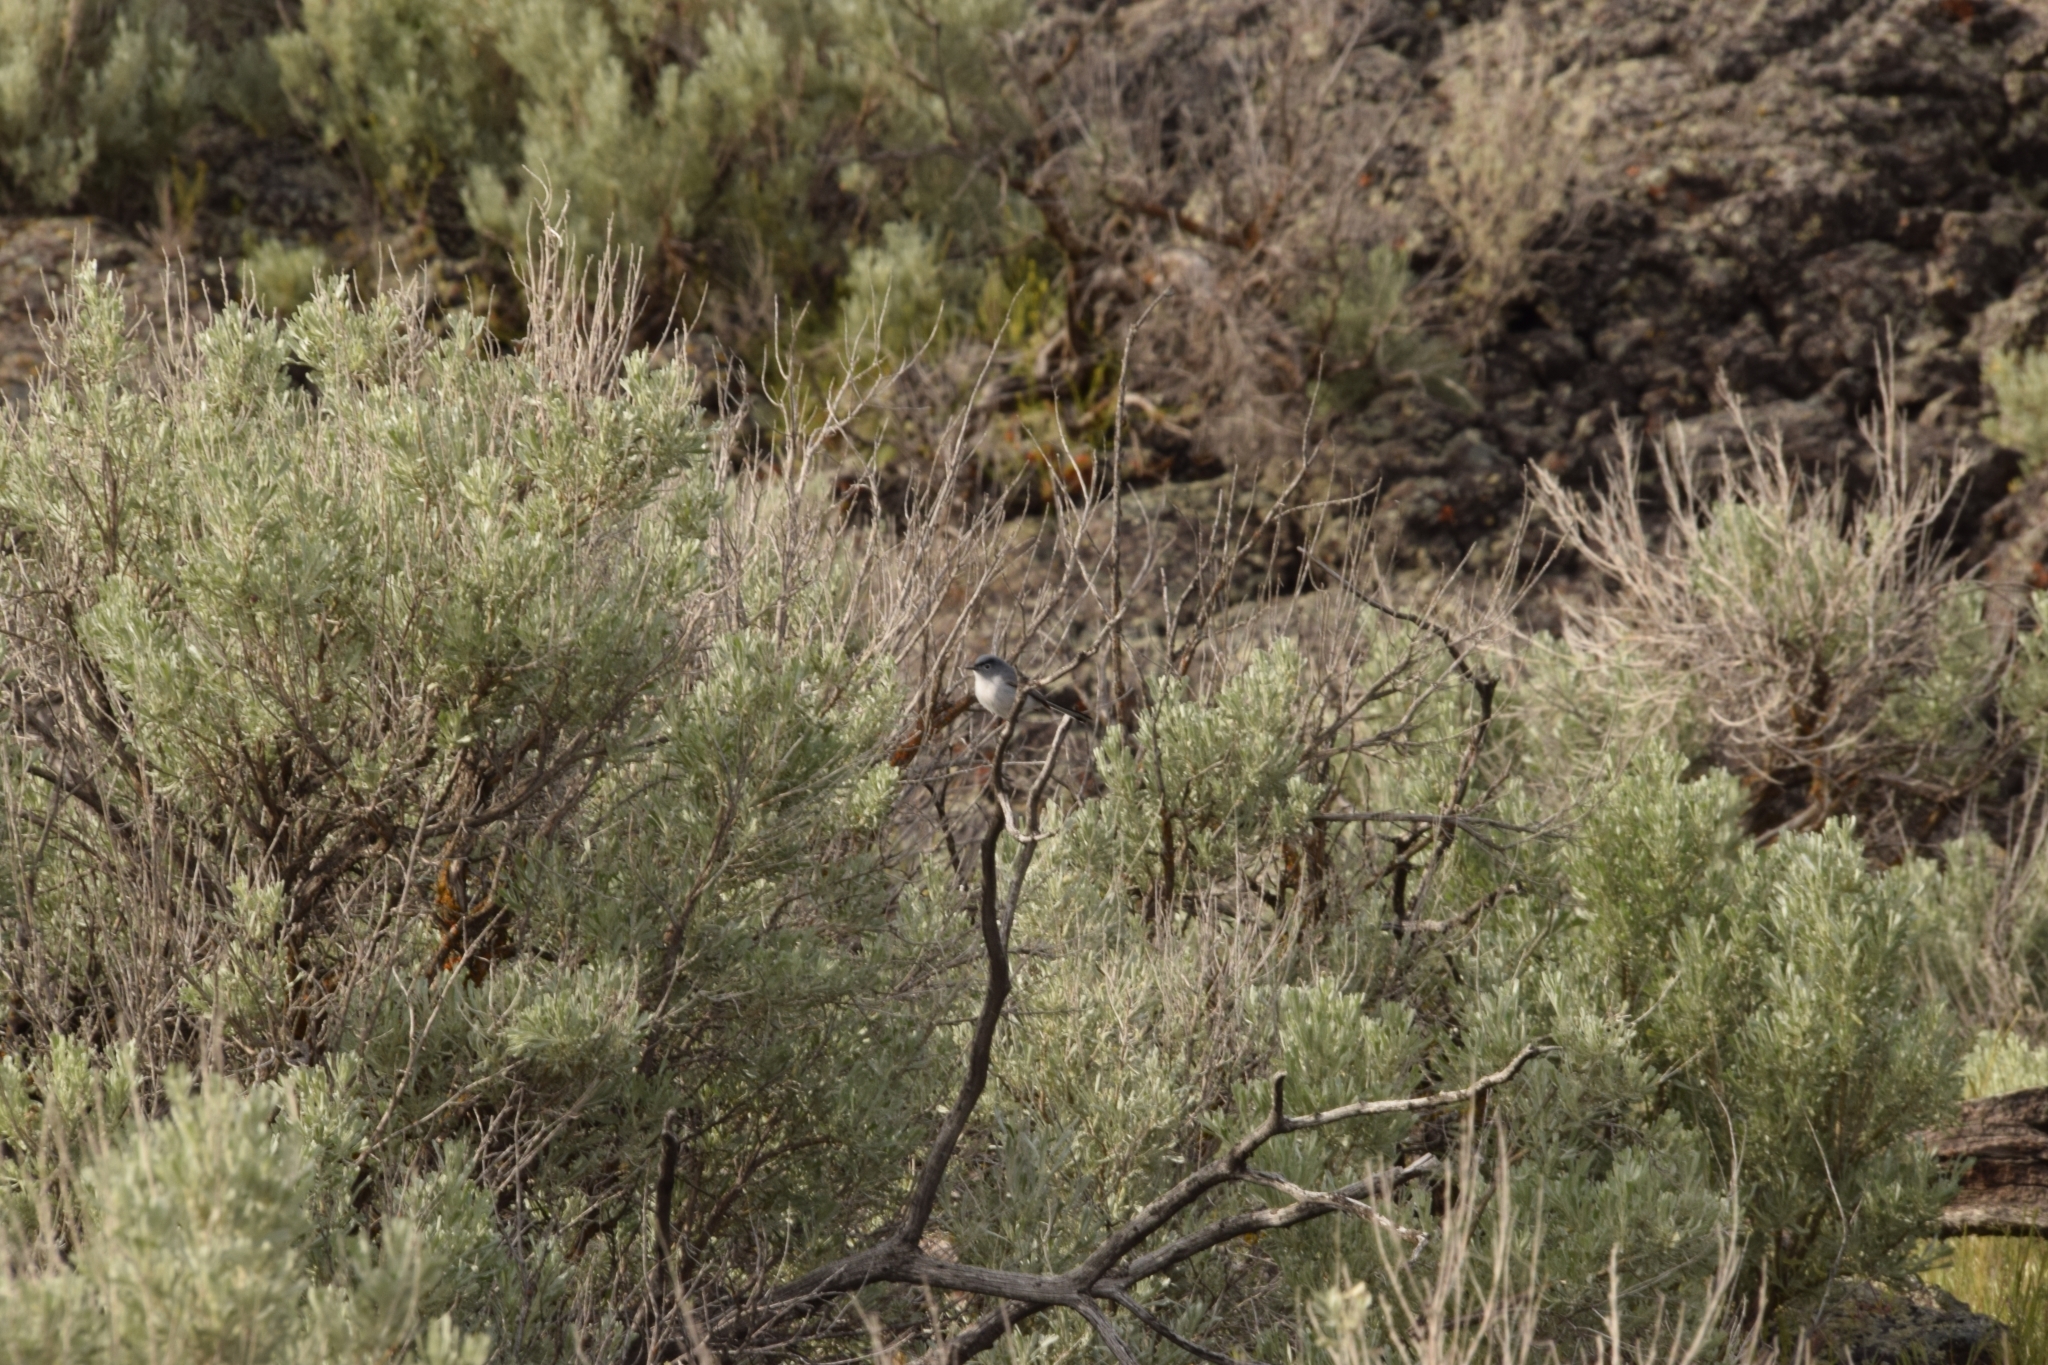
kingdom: Animalia
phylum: Chordata
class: Aves
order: Passeriformes
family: Polioptilidae
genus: Polioptila
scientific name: Polioptila caerulea
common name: Blue-gray gnatcatcher
